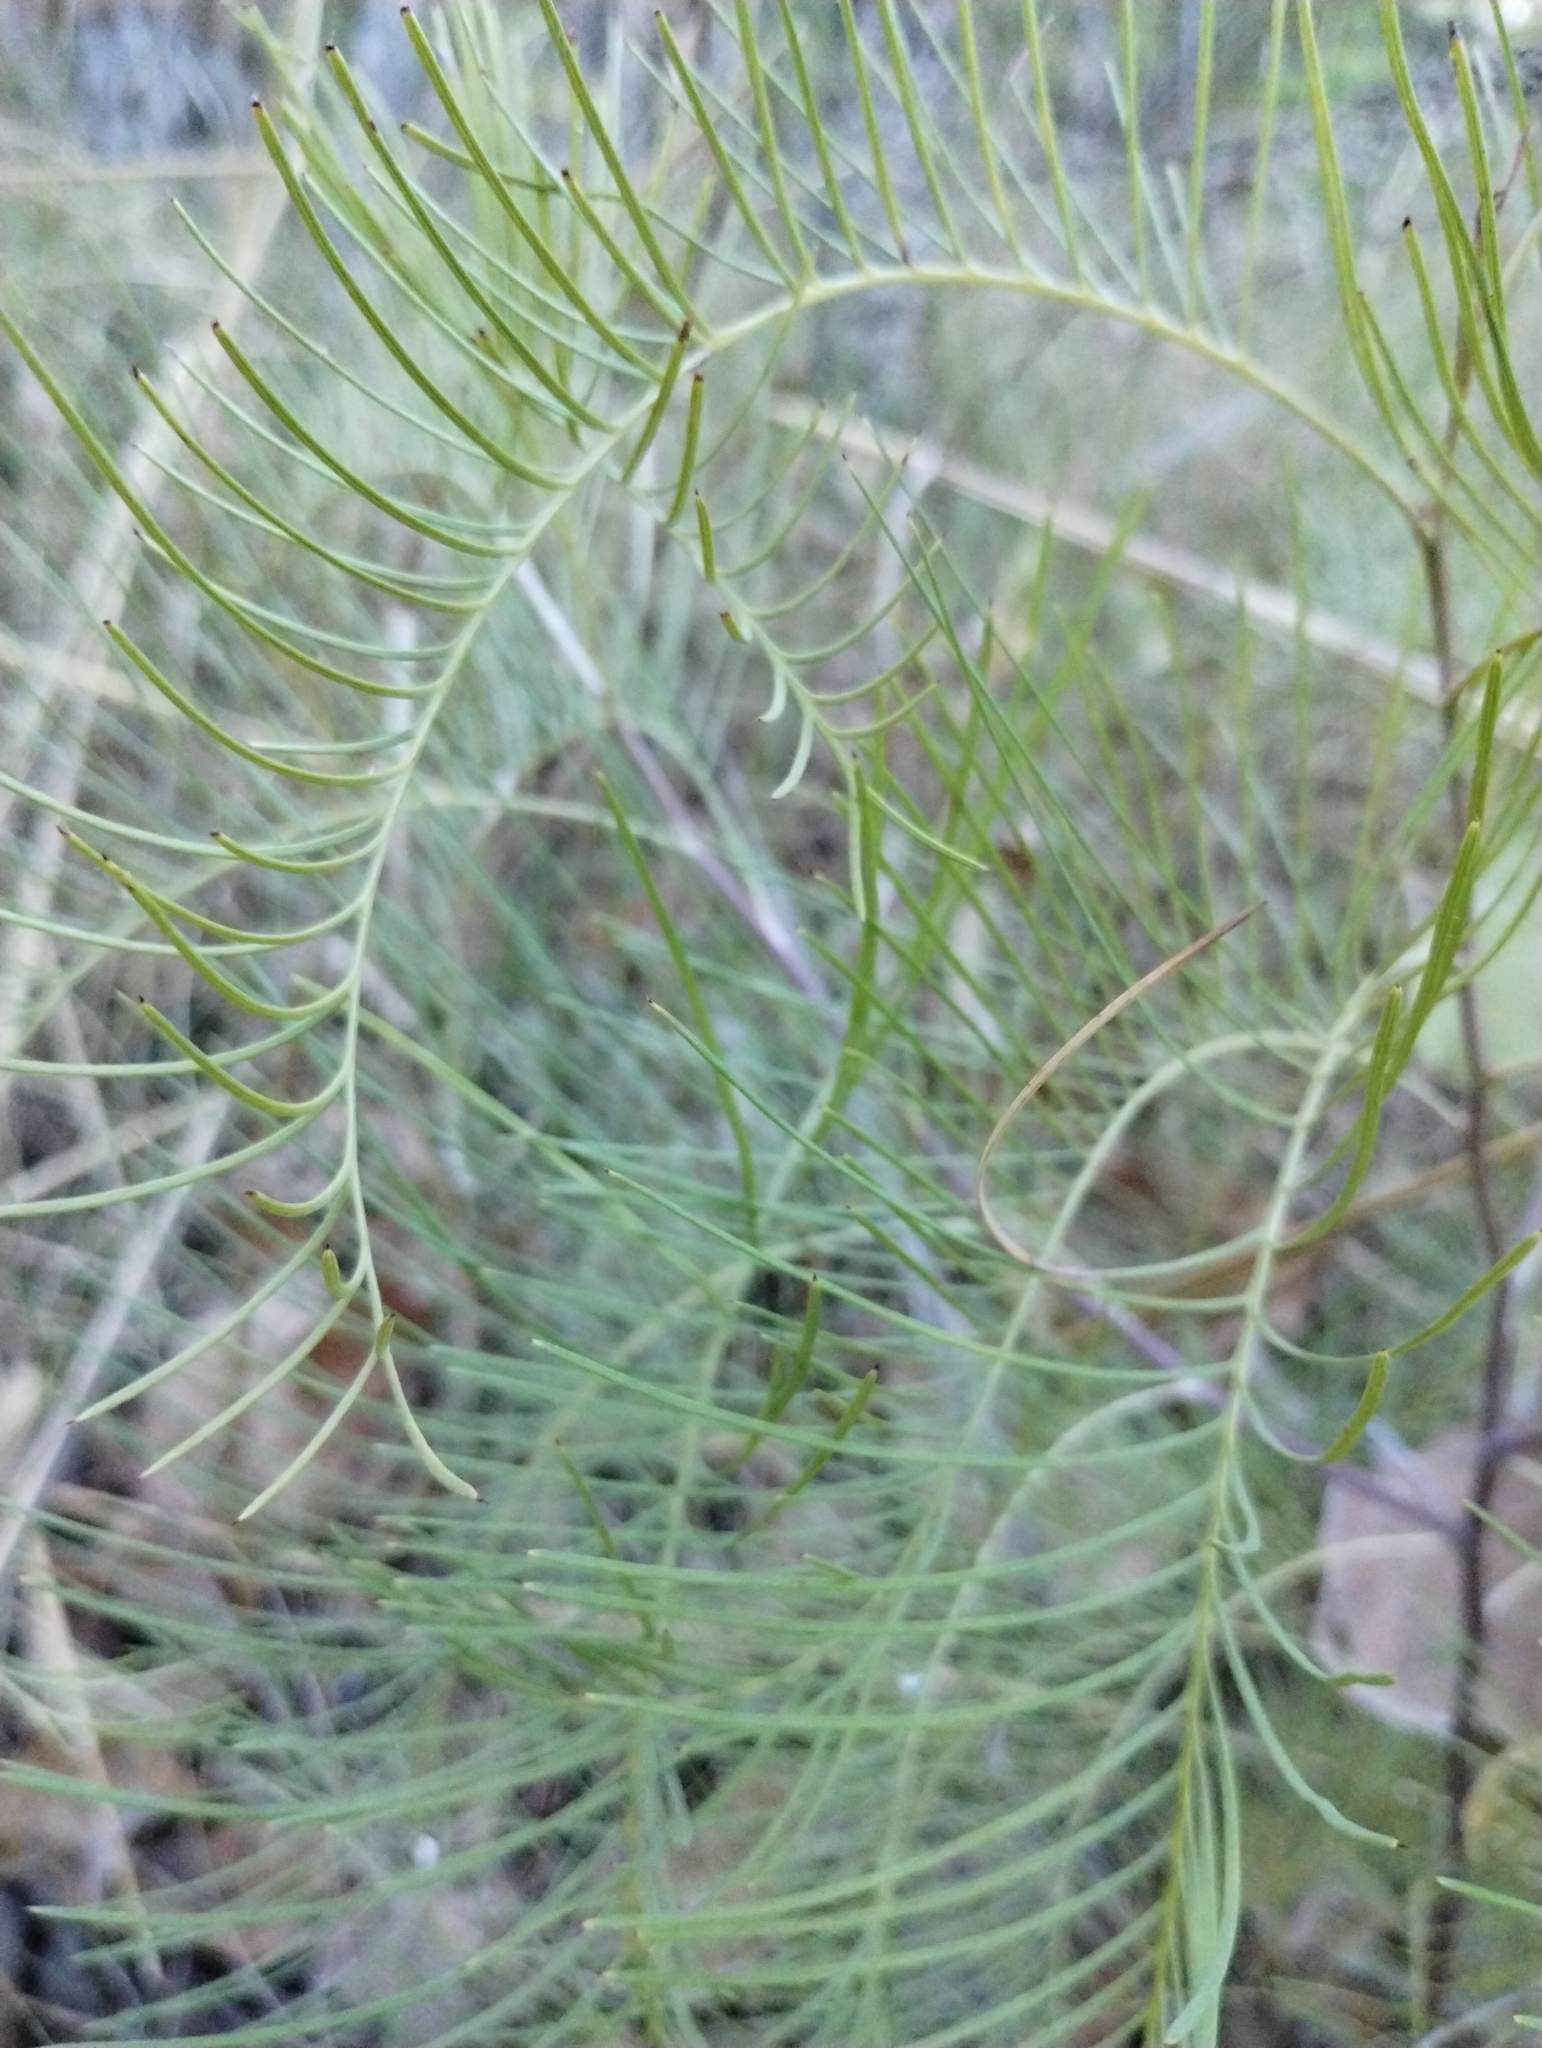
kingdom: Plantae
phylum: Tracheophyta
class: Magnoliopsida
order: Proteales
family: Proteaceae
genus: Grevillea
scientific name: Grevillea dryandri
